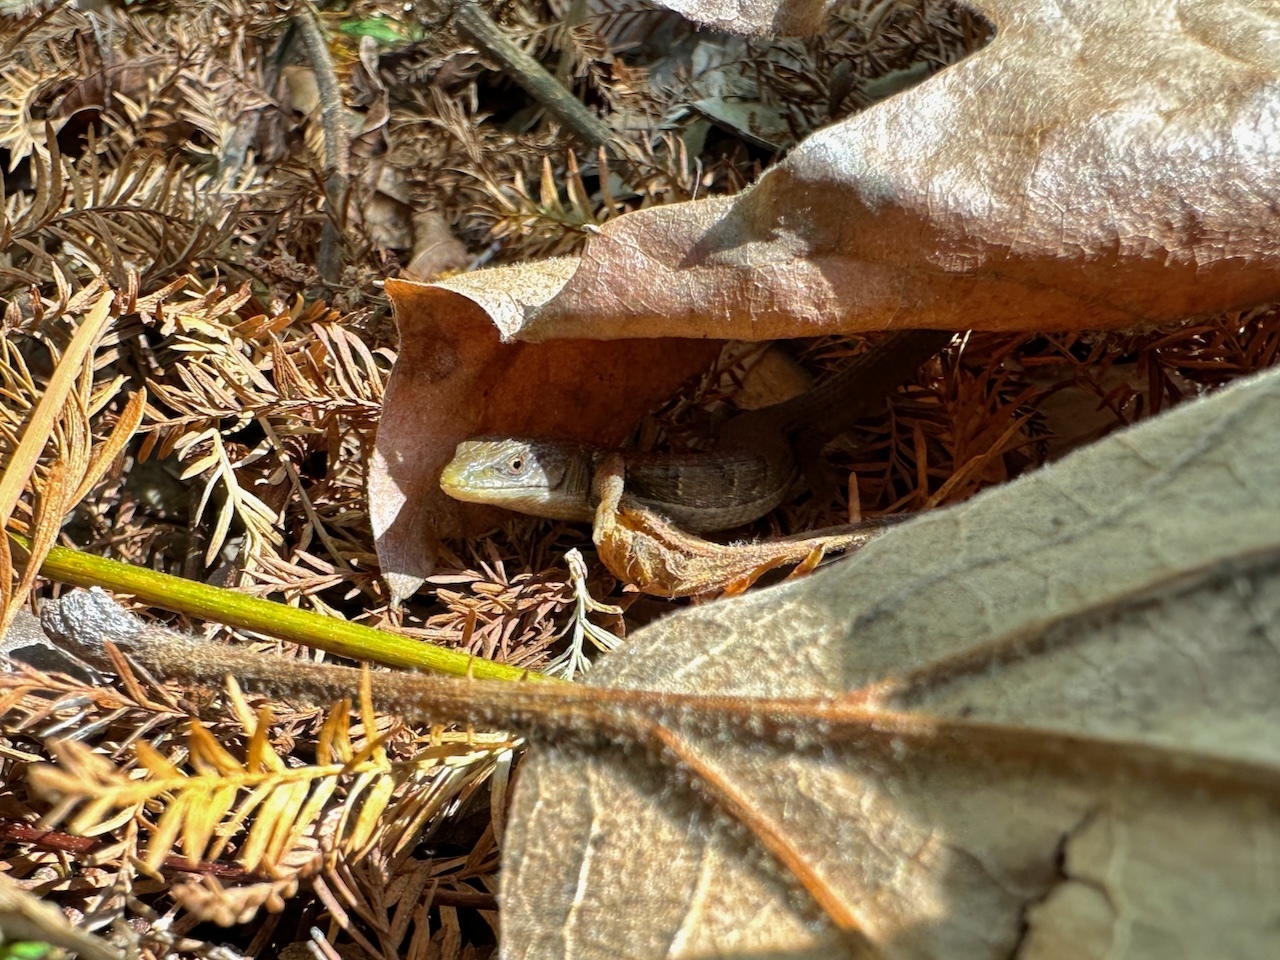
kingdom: Animalia
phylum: Chordata
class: Squamata
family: Anguidae
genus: Elgaria
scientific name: Elgaria multicarinata
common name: Southern alligator lizard
